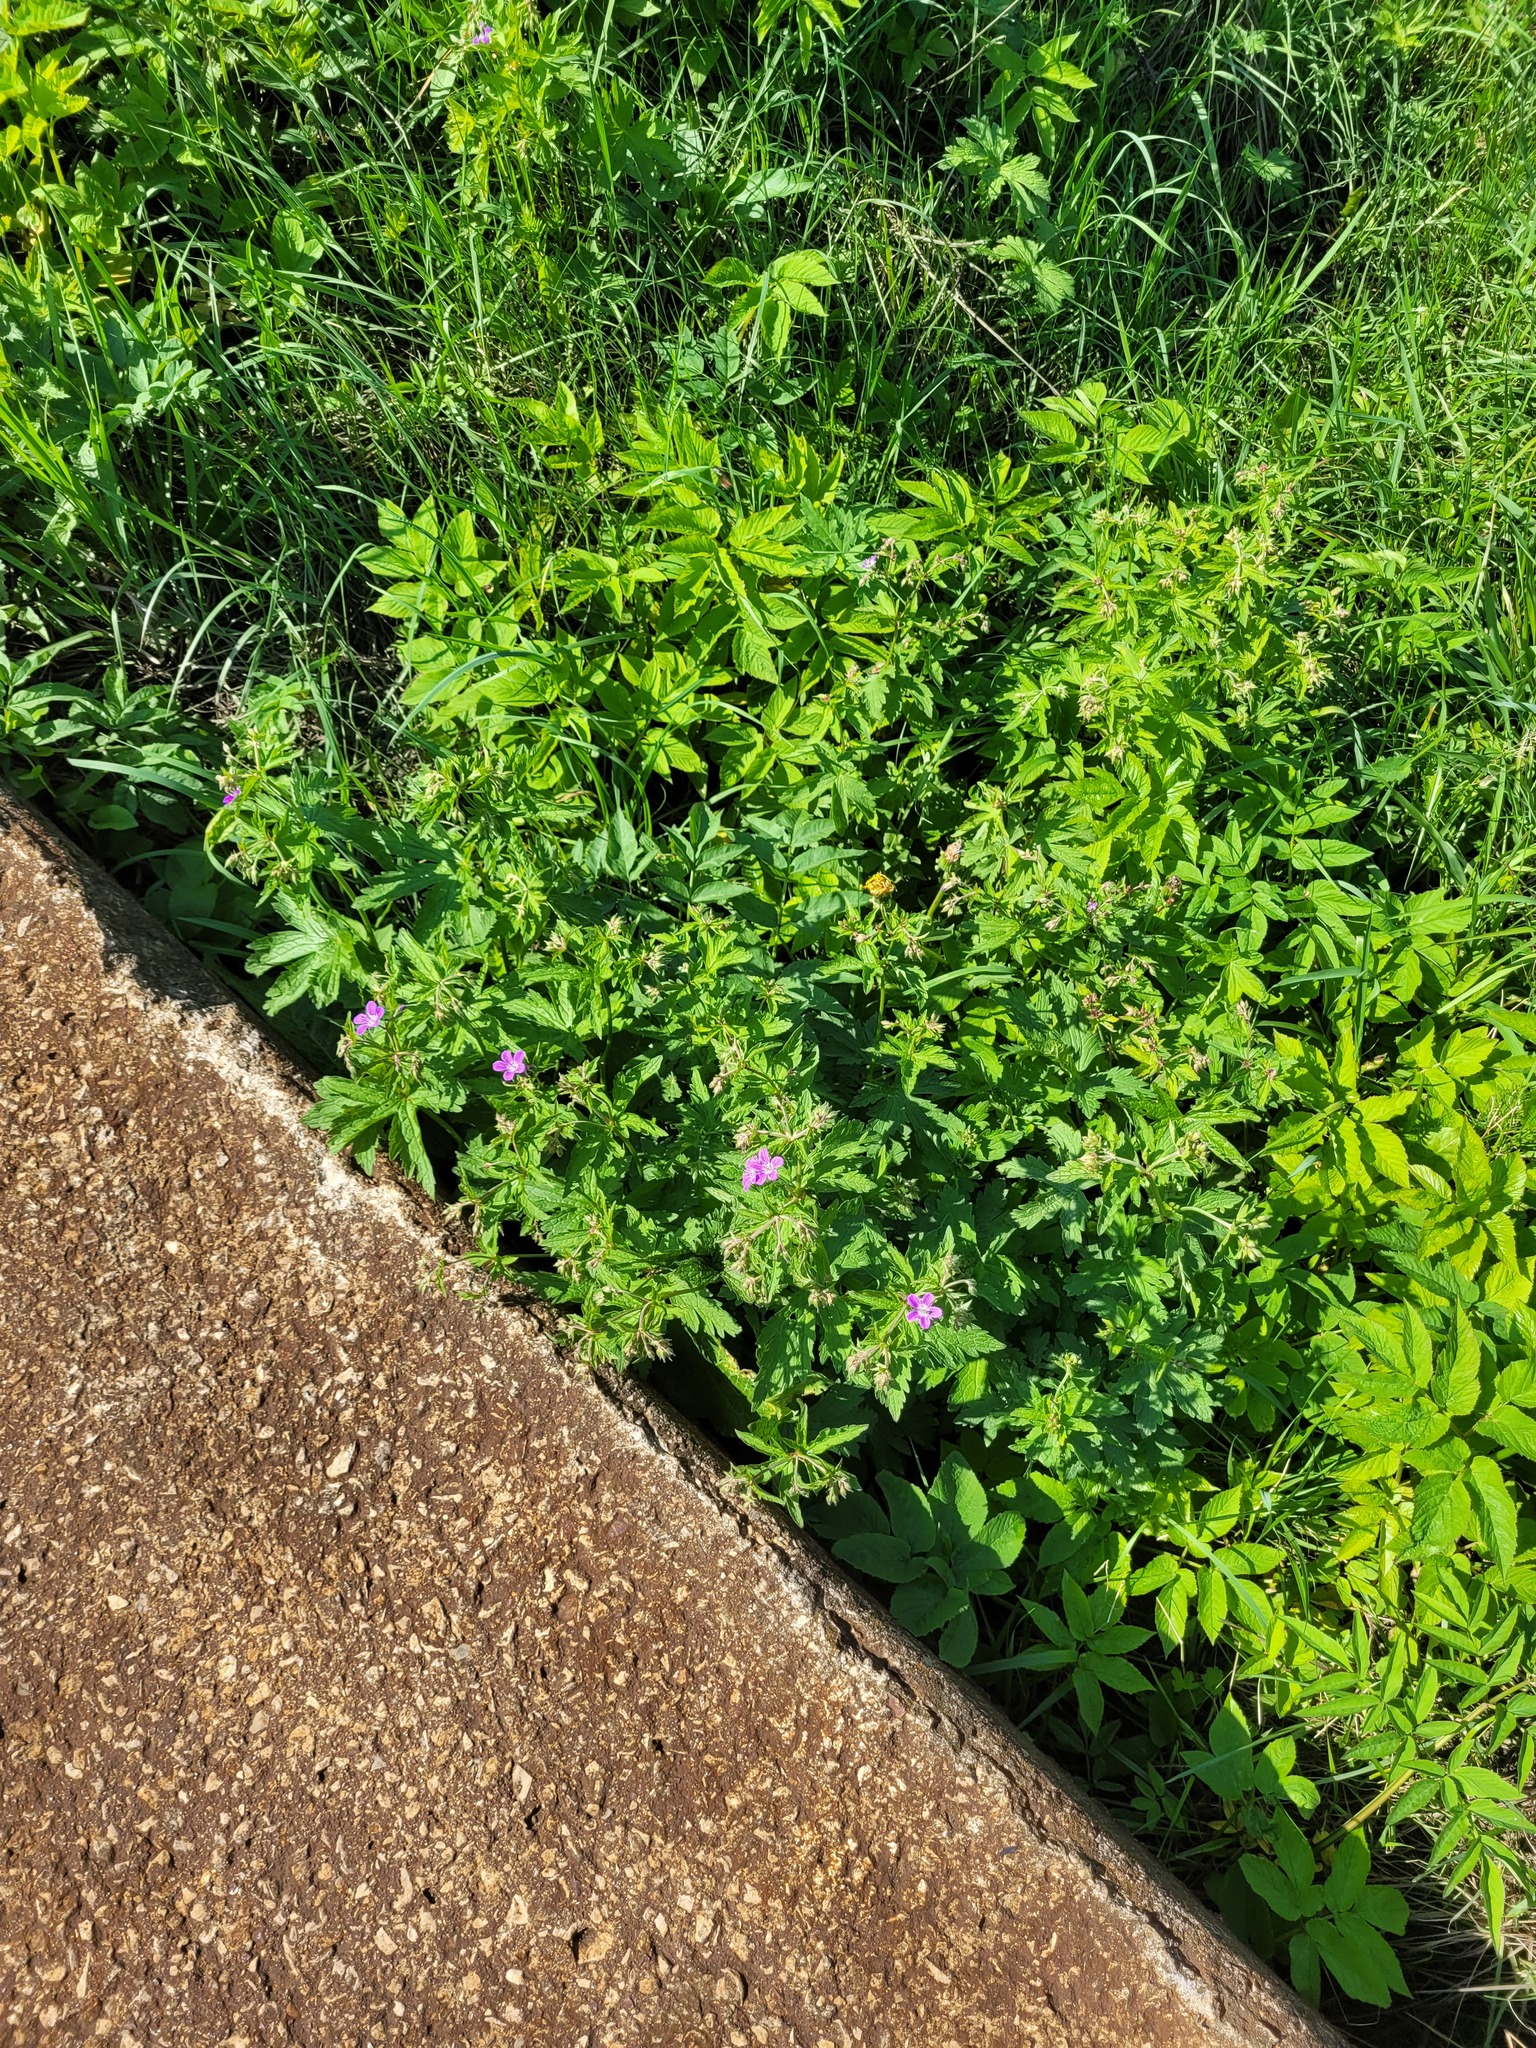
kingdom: Plantae
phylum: Tracheophyta
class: Magnoliopsida
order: Geraniales
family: Geraniaceae
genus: Geranium
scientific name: Geranium sylvaticum
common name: Wood crane's-bill
